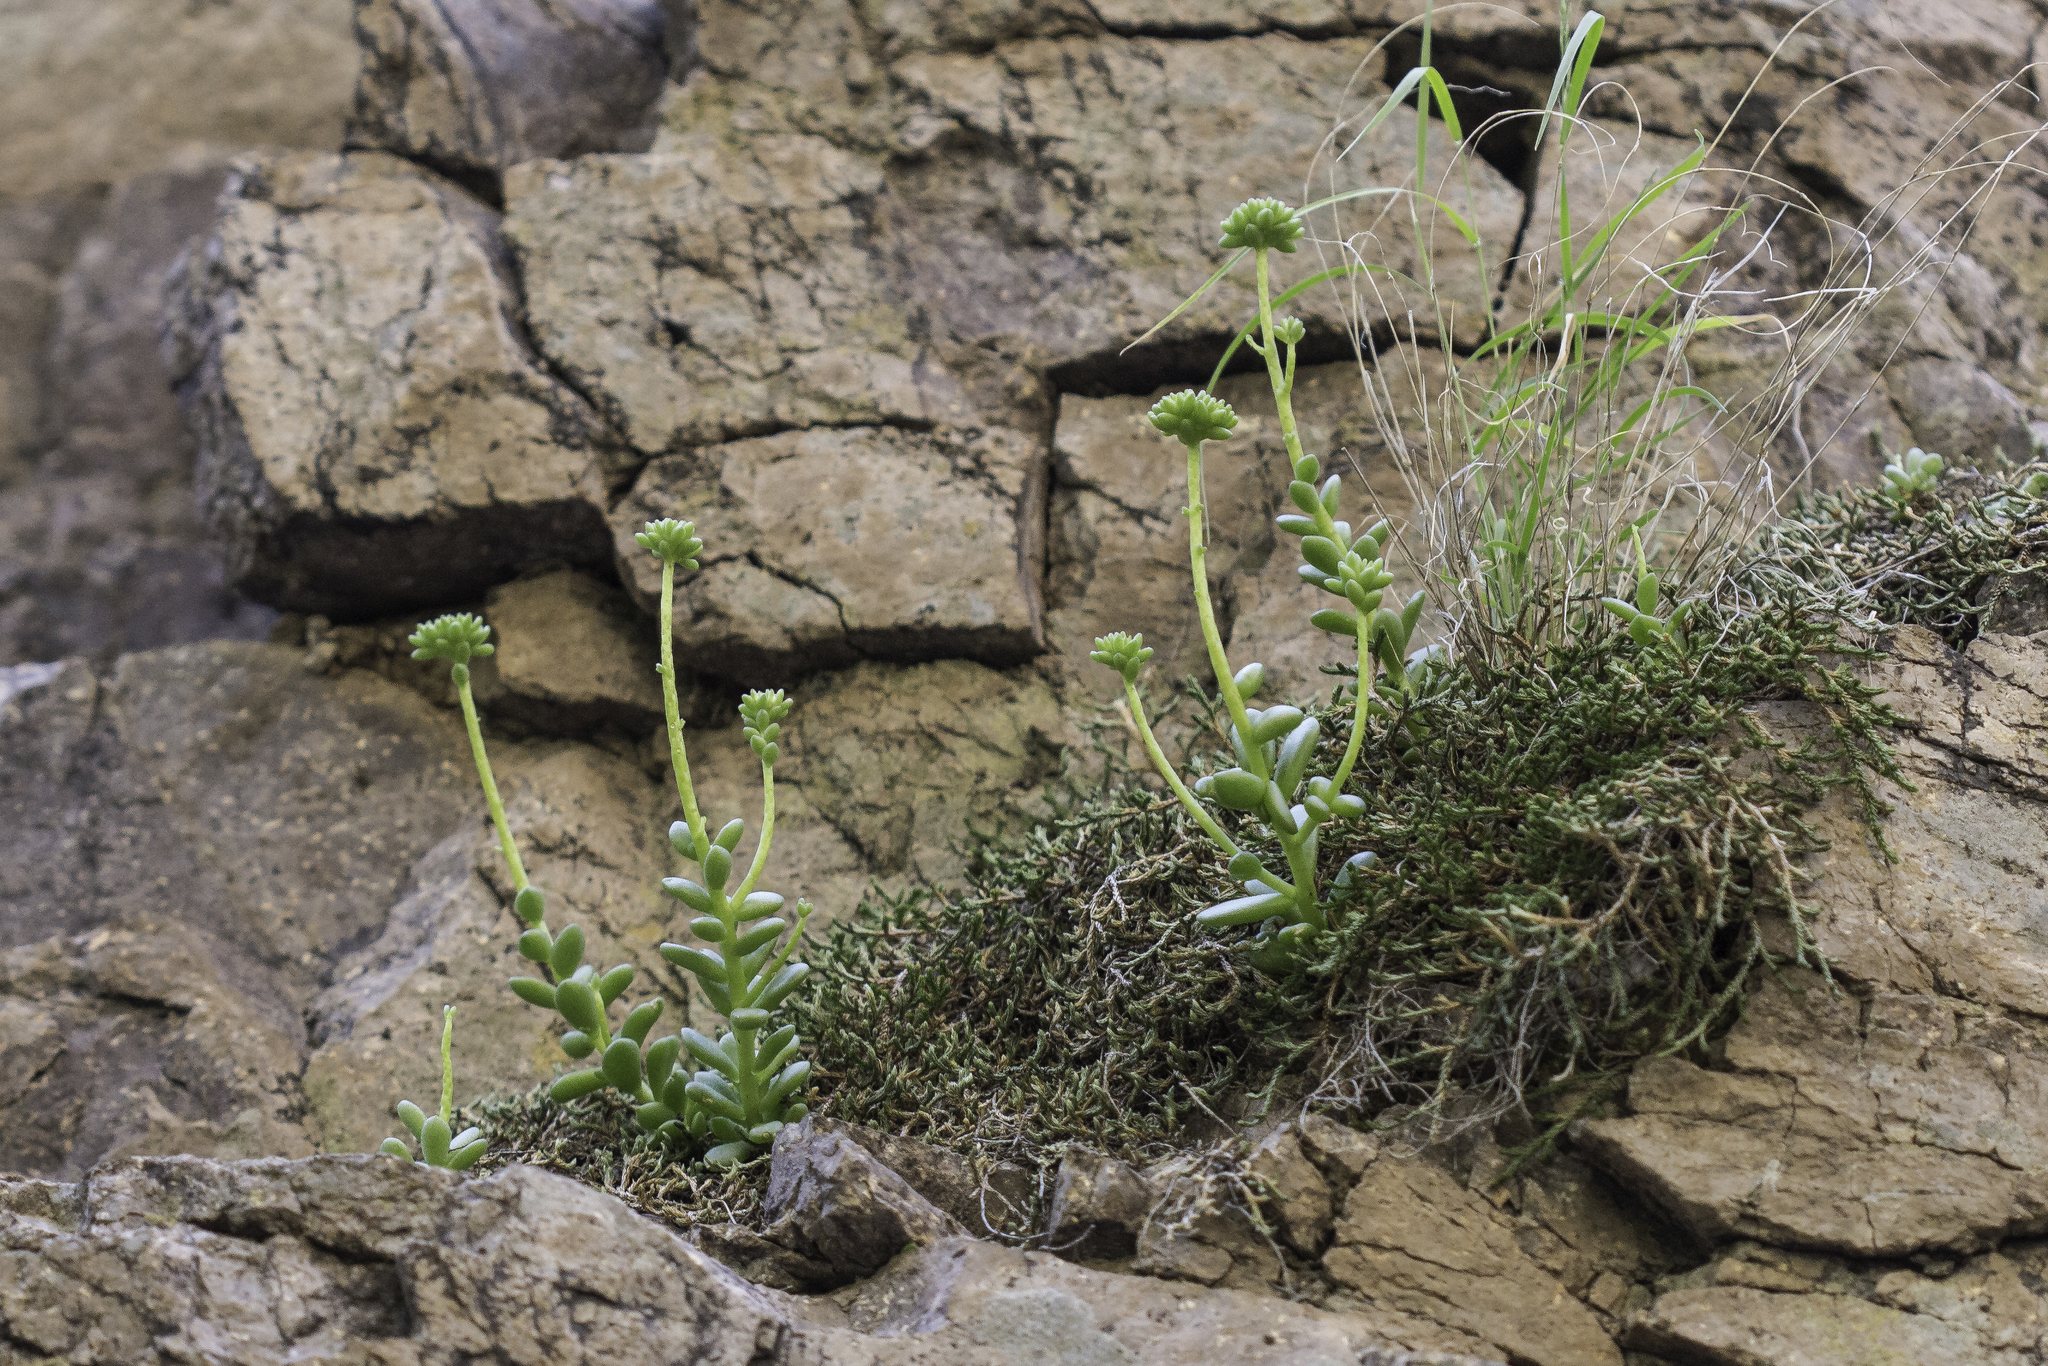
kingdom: Plantae
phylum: Tracheophyta
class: Magnoliopsida
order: Saxifragales
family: Crassulaceae
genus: Sedum
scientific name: Sedum wrightii
